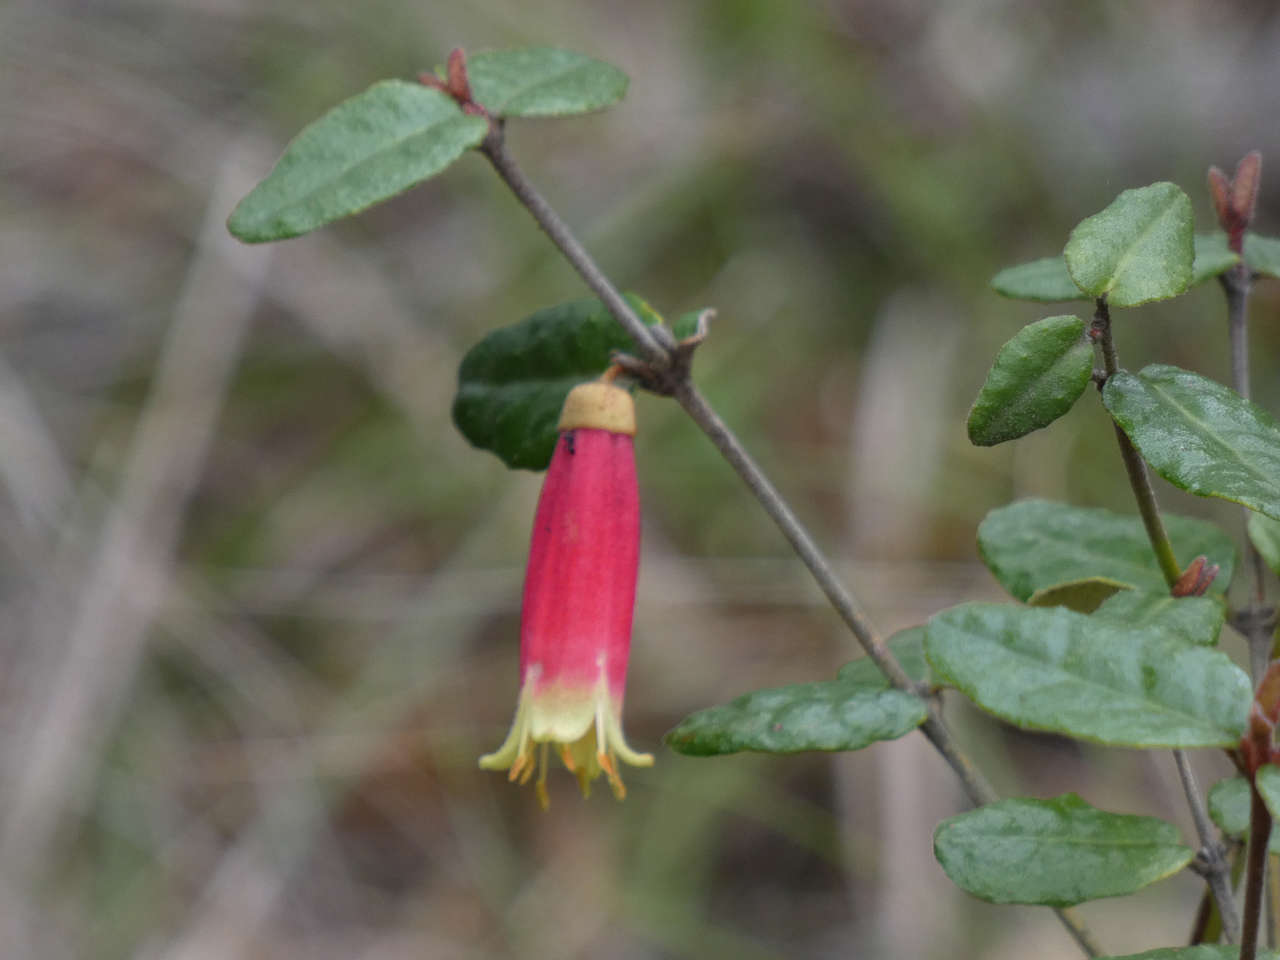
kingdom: Plantae
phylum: Tracheophyta
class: Magnoliopsida
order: Sapindales
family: Rutaceae
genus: Correa
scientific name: Correa reflexa
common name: Common correa
